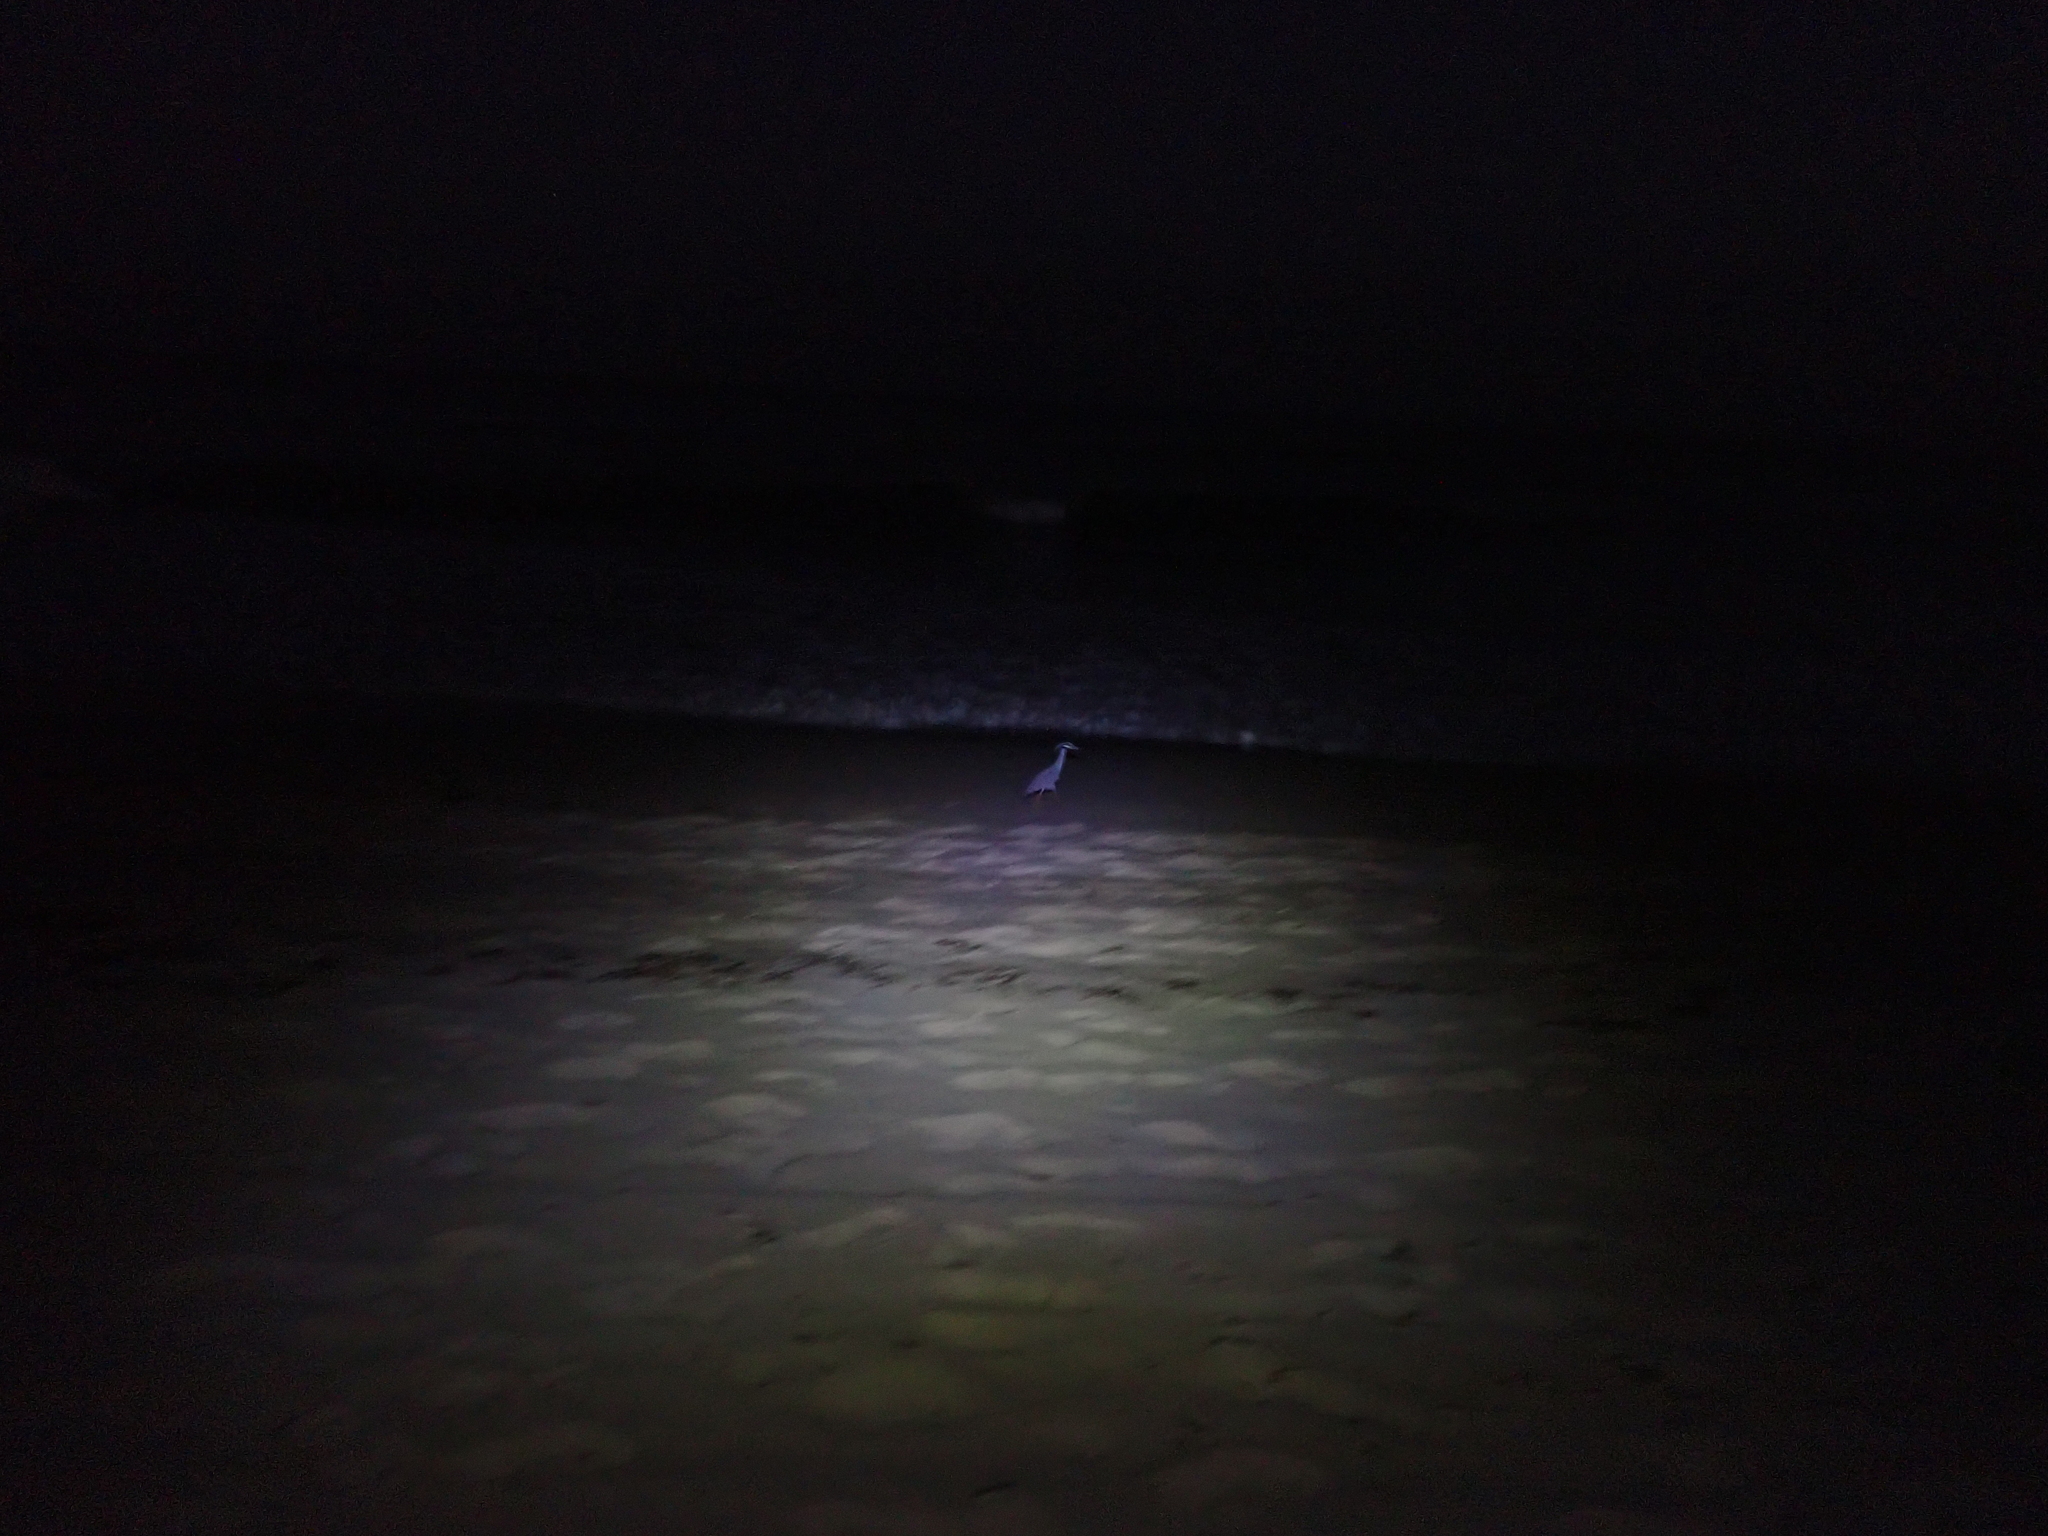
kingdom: Animalia
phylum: Chordata
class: Aves
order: Pelecaniformes
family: Ardeidae
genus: Nyctanassa
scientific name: Nyctanassa violacea
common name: Yellow-crowned night heron
